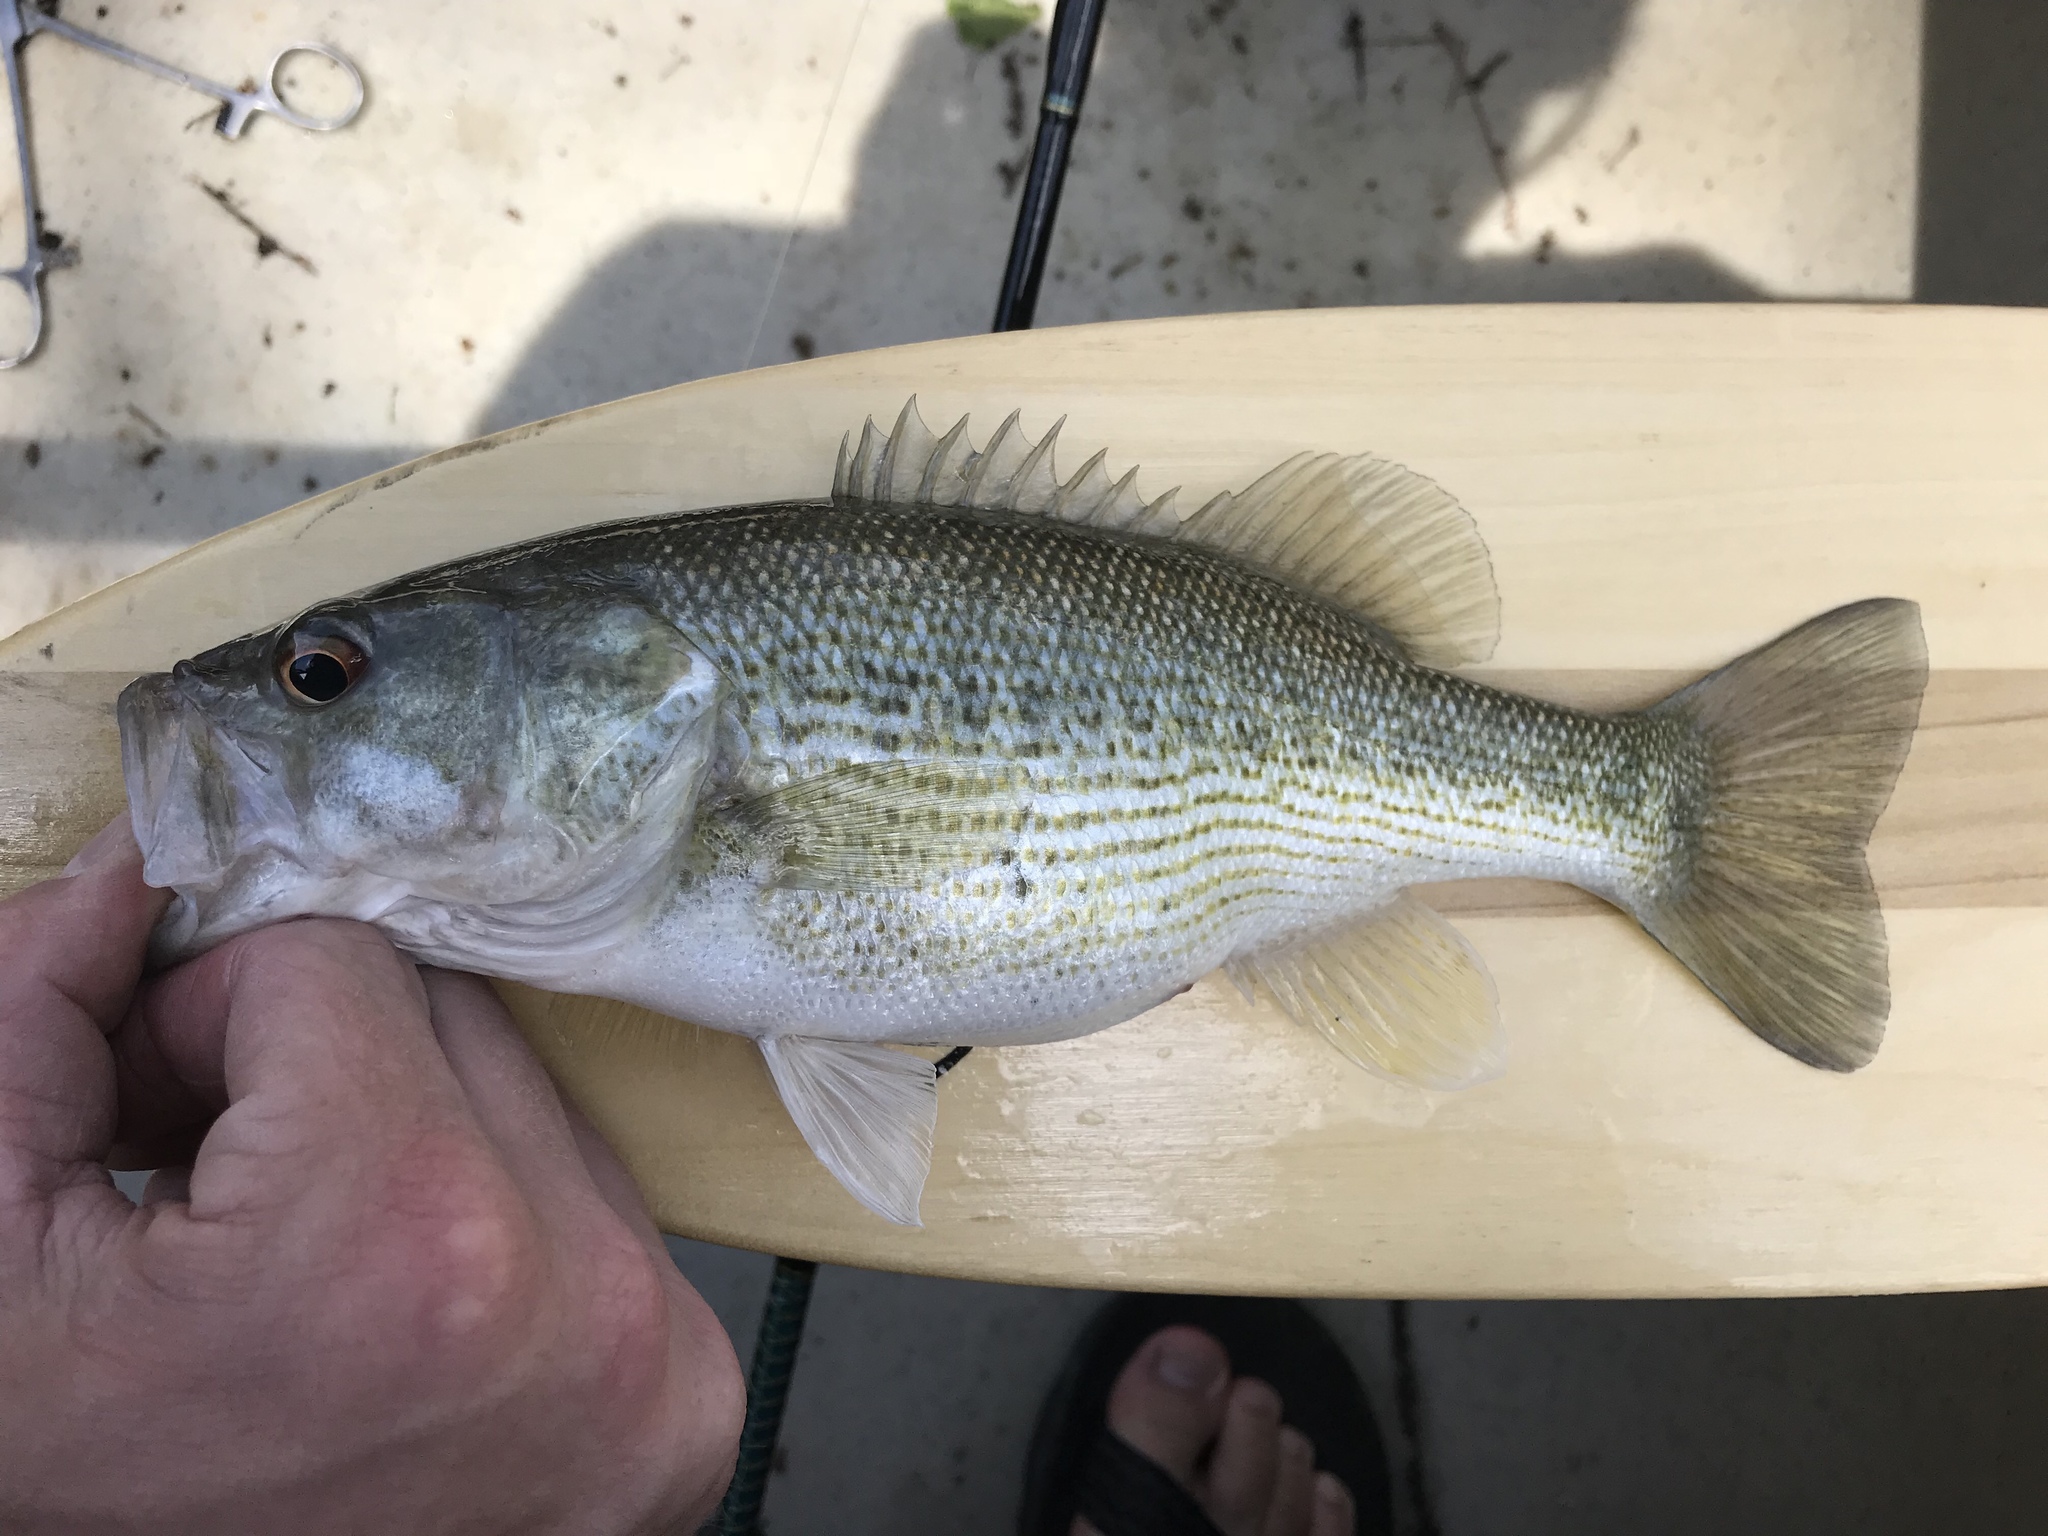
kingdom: Animalia
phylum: Chordata
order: Perciformes
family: Centrarchidae
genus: Micropterus
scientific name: Micropterus treculii
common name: Guadalupe bass
